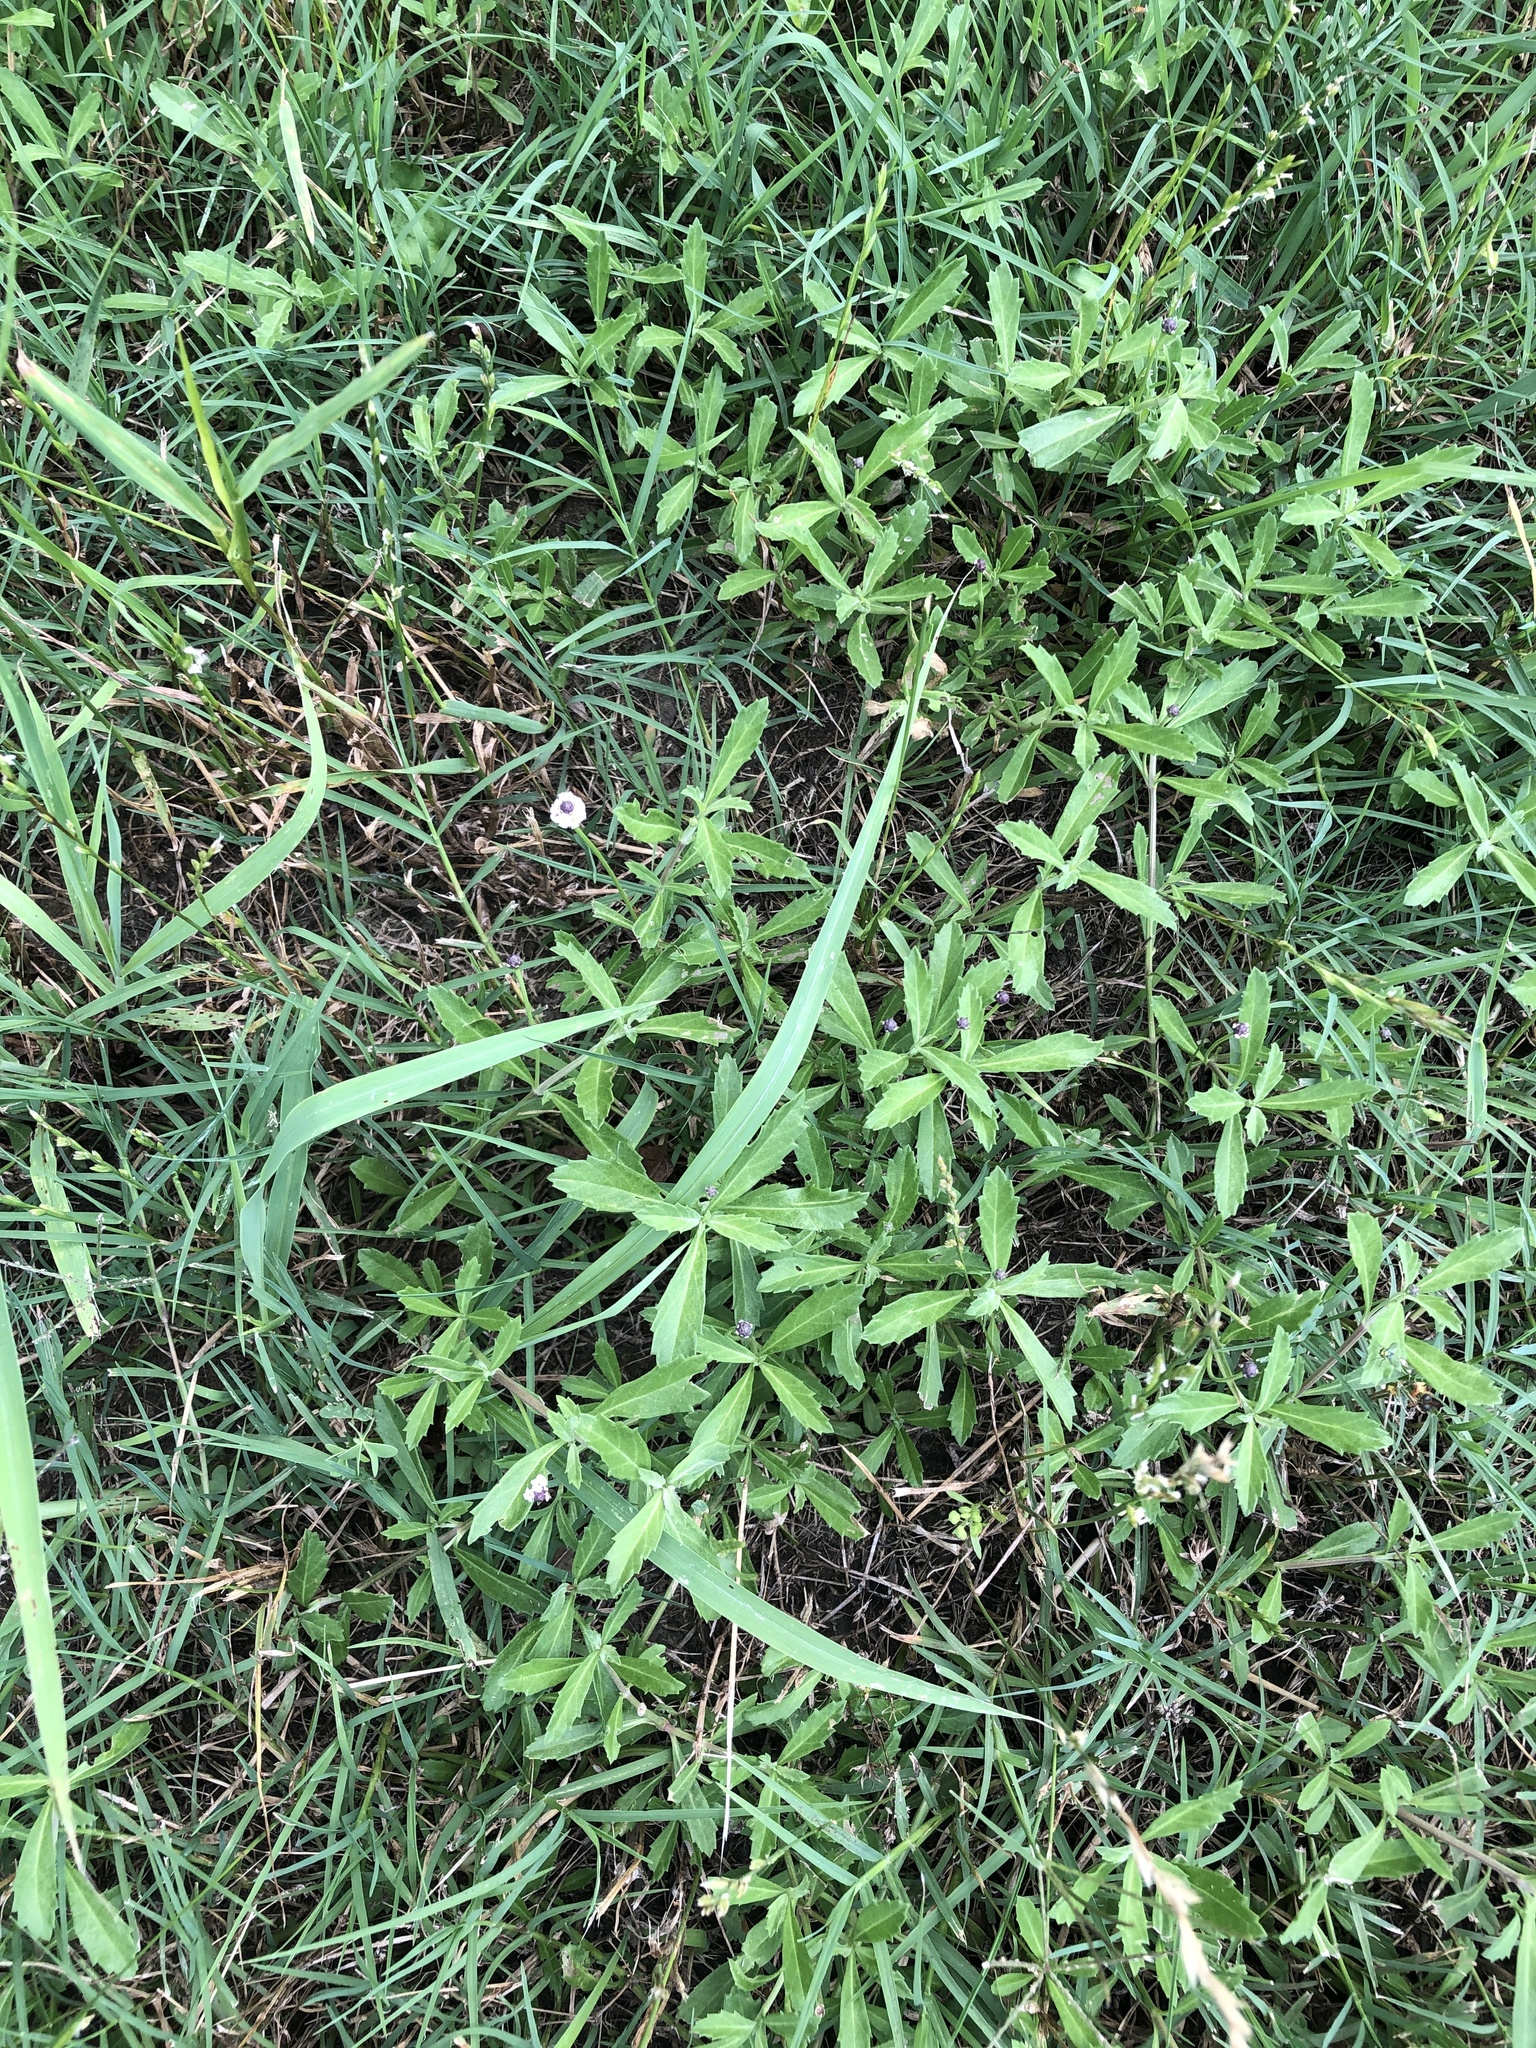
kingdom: Plantae
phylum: Tracheophyta
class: Magnoliopsida
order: Lamiales
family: Verbenaceae
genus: Phyla
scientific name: Phyla nodiflora
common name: Frogfruit
